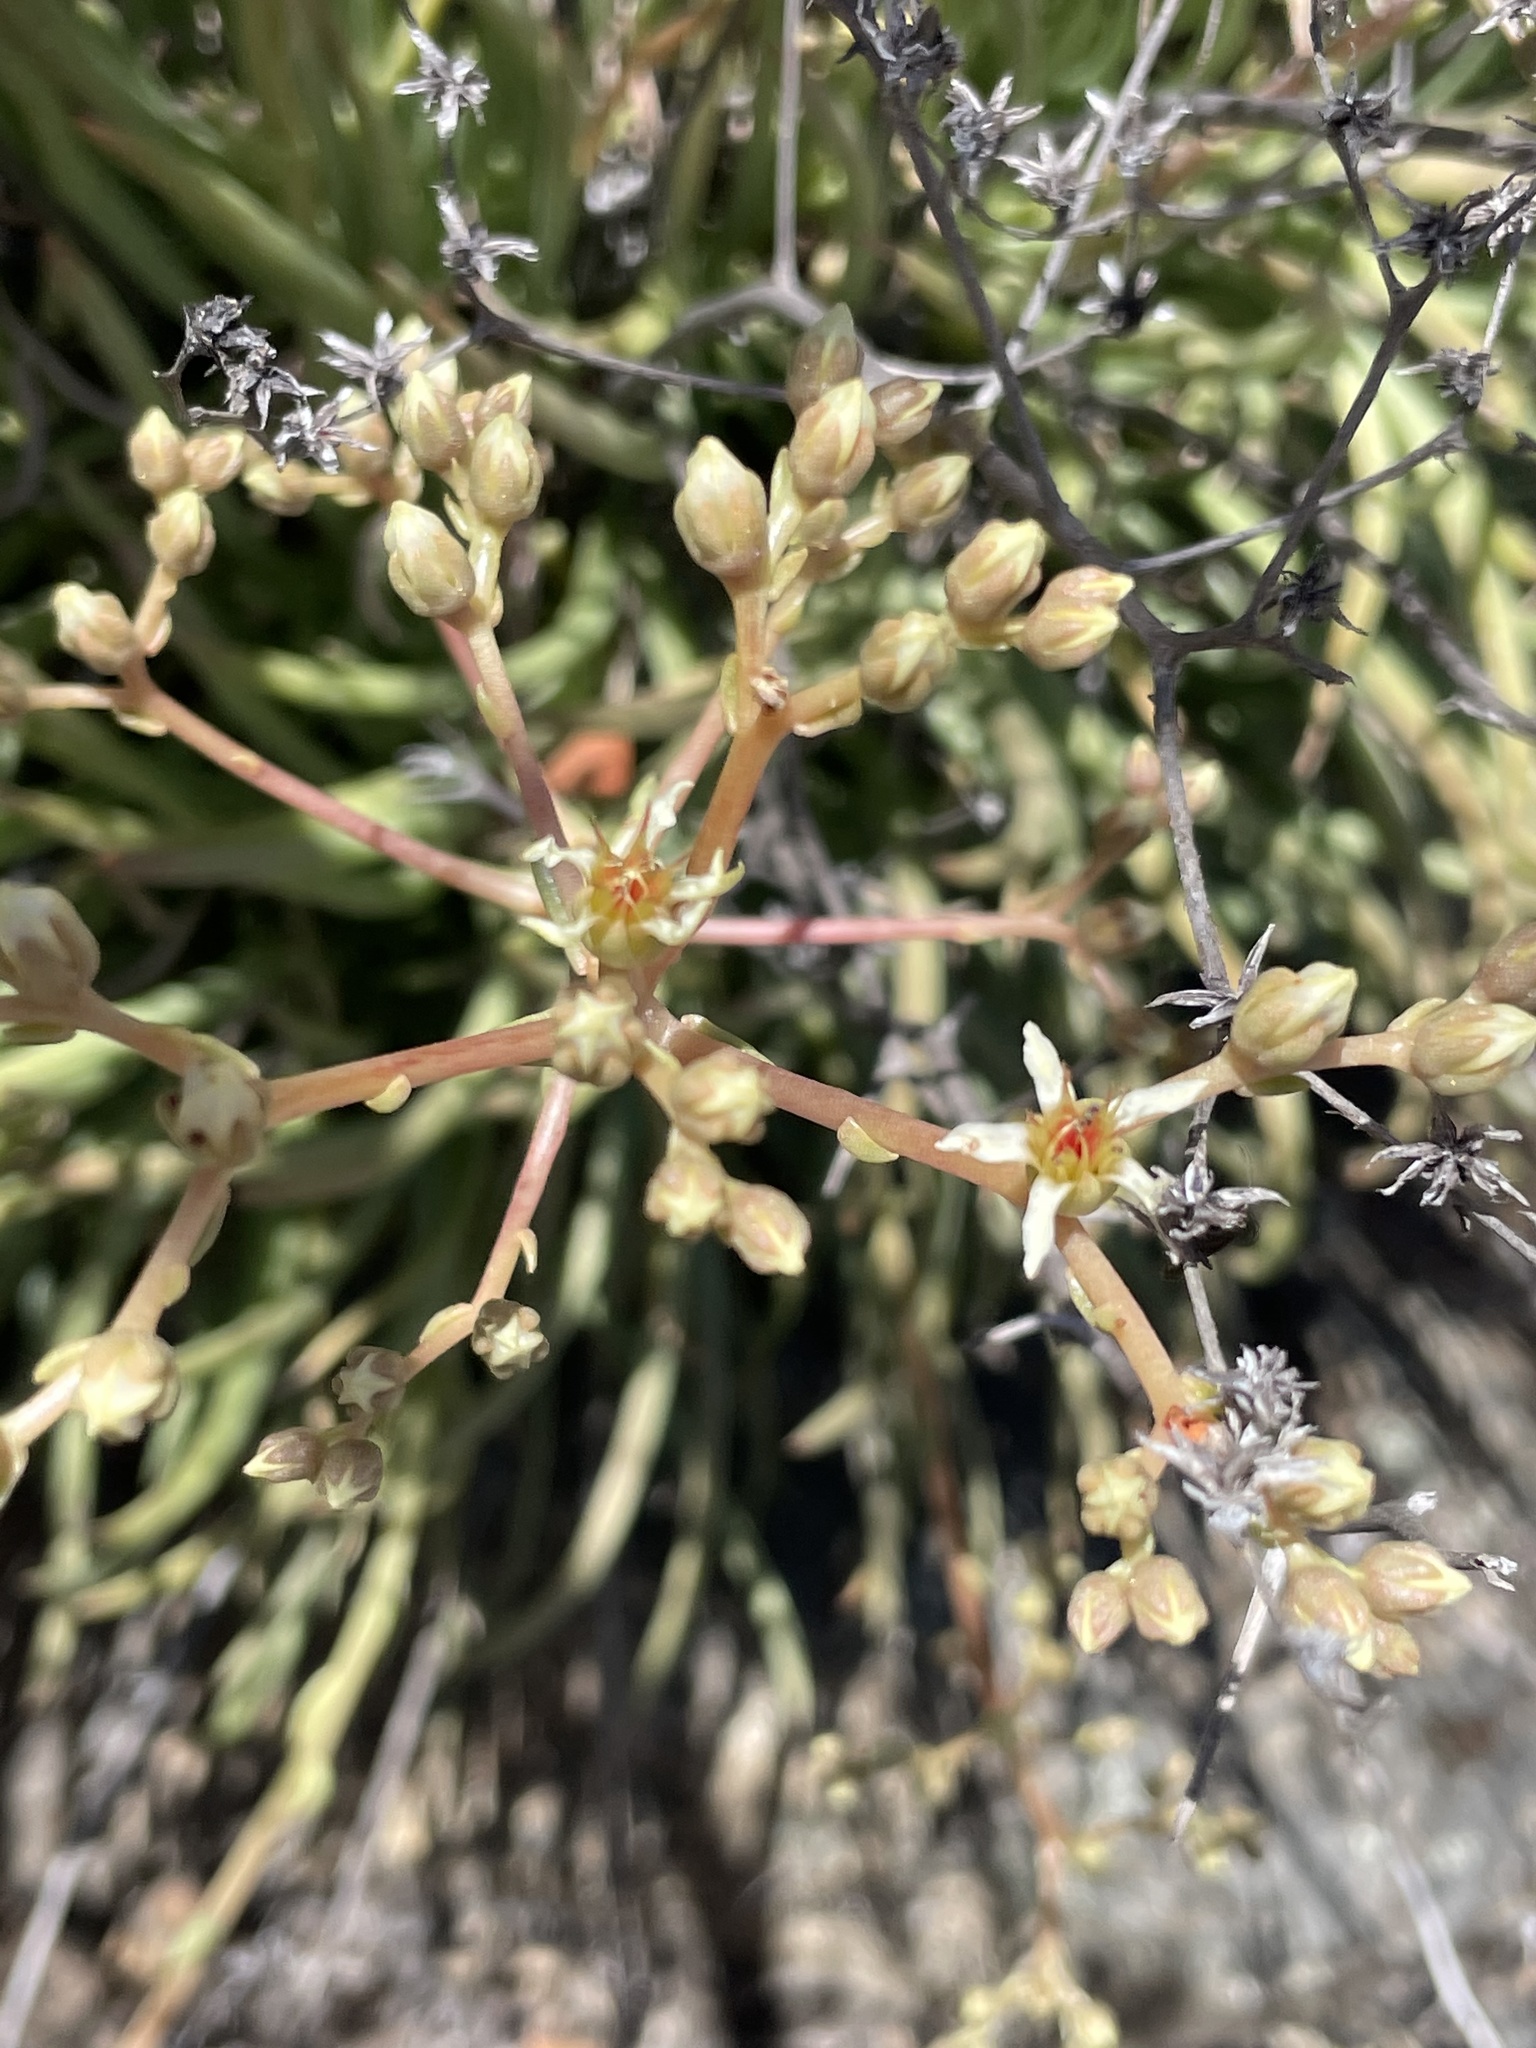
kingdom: Plantae
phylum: Tracheophyta
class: Magnoliopsida
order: Saxifragales
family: Crassulaceae
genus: Dudleya
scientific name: Dudleya edulis
